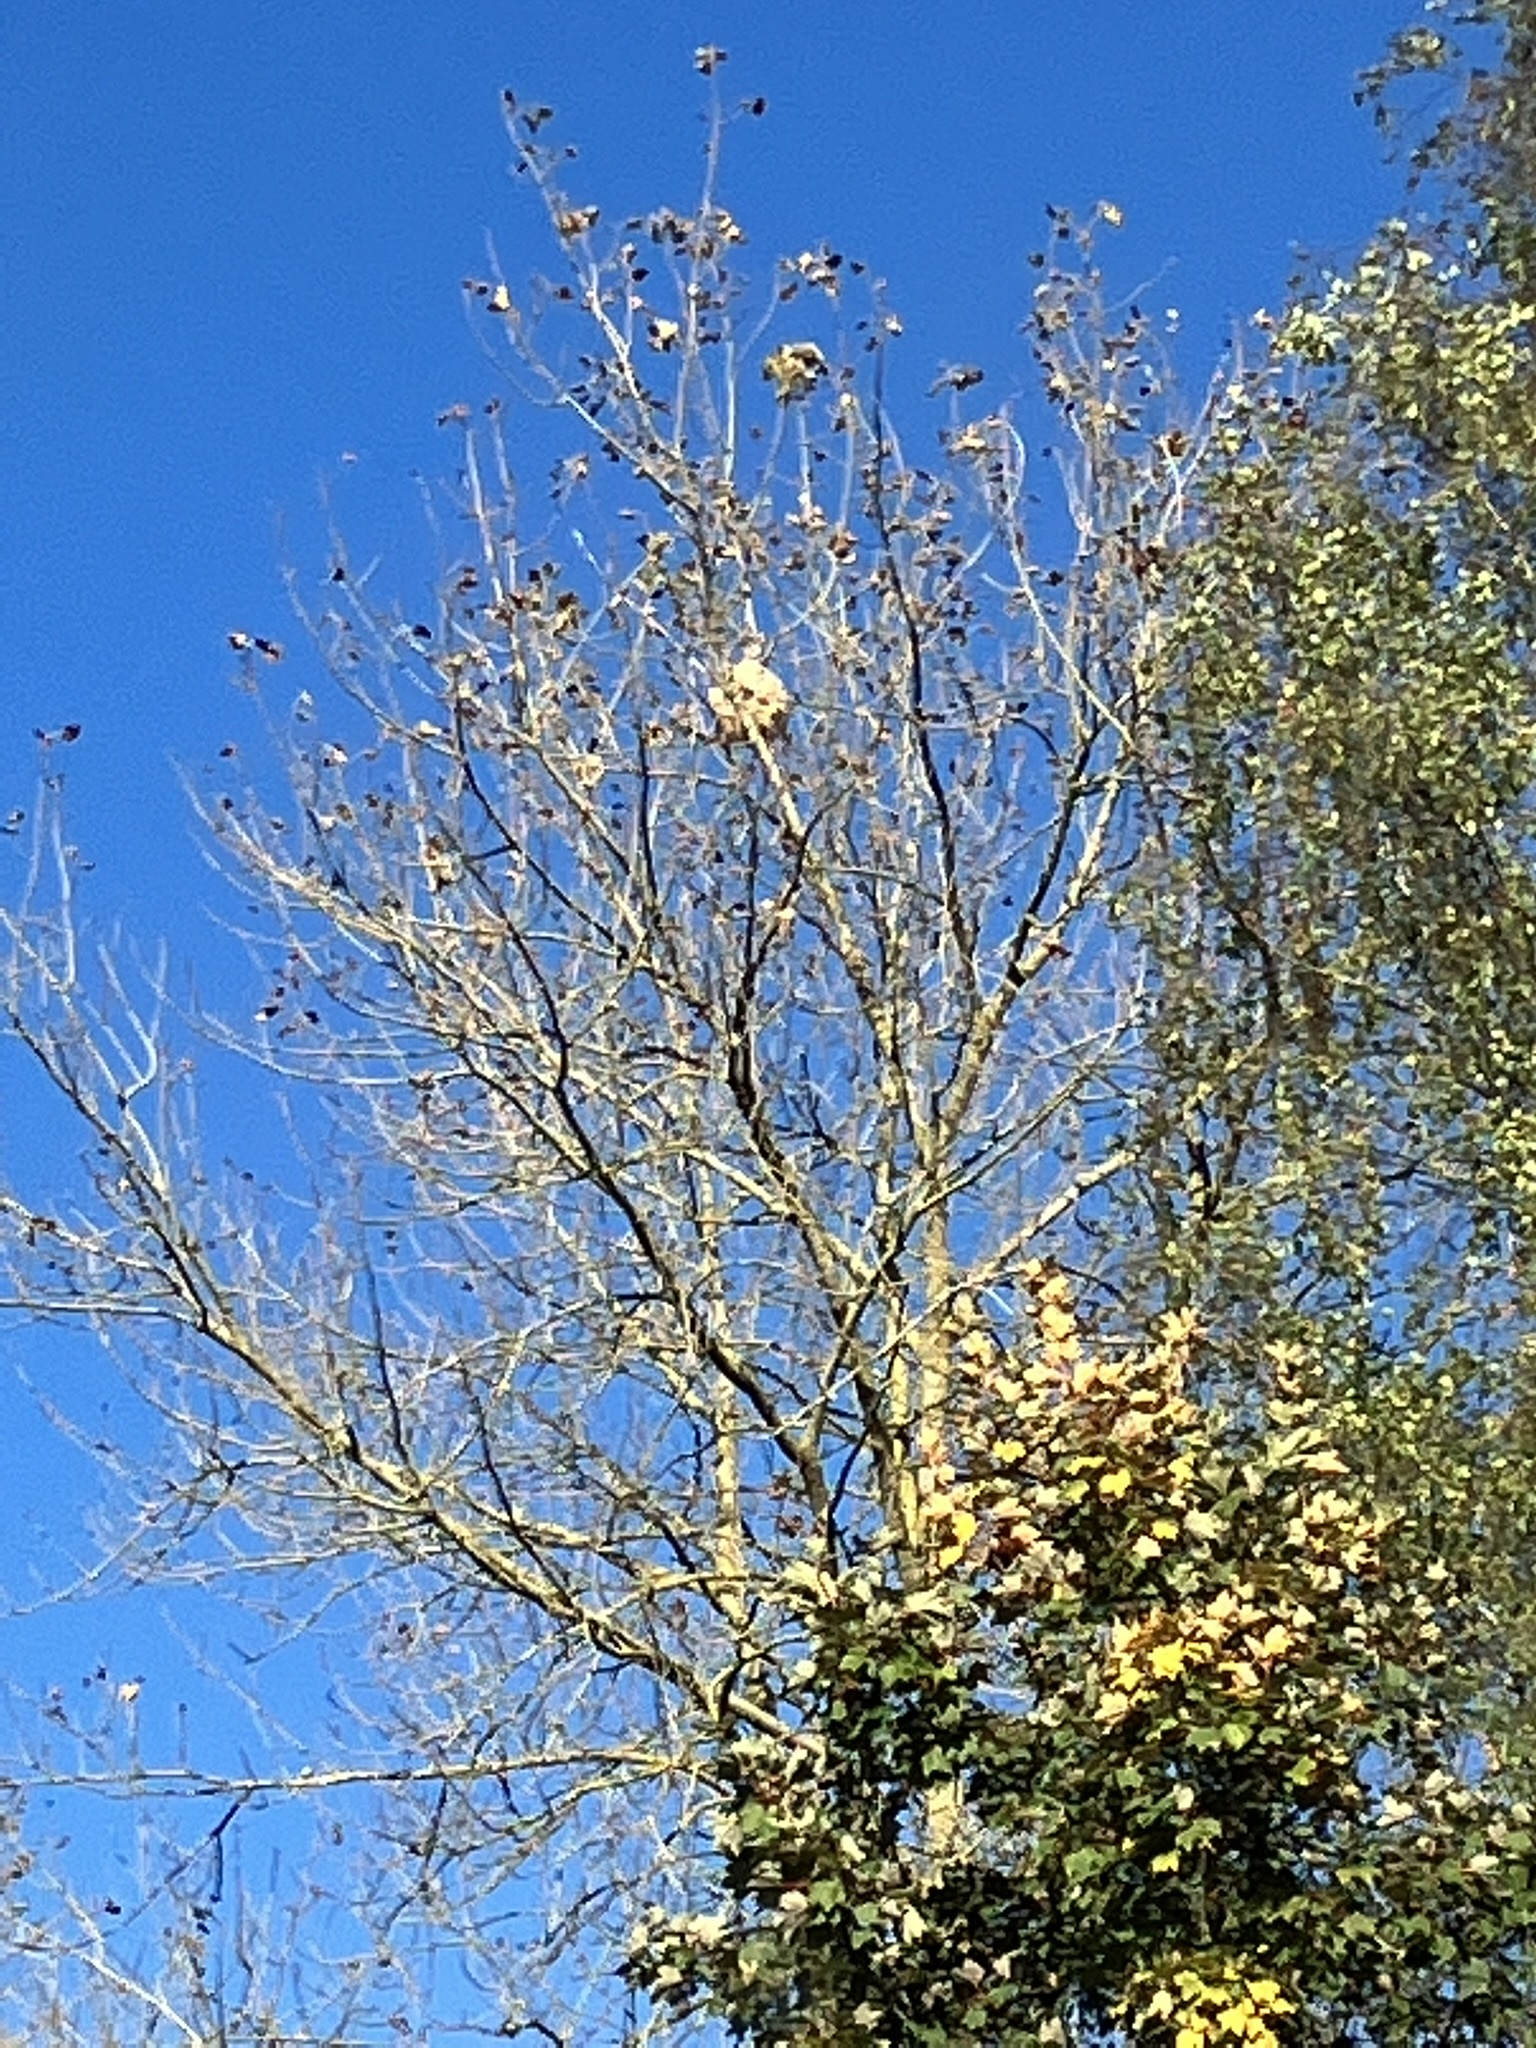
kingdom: Animalia
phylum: Arthropoda
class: Insecta
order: Hymenoptera
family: Vespidae
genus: Vespa
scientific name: Vespa velutina
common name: Asian hornet
